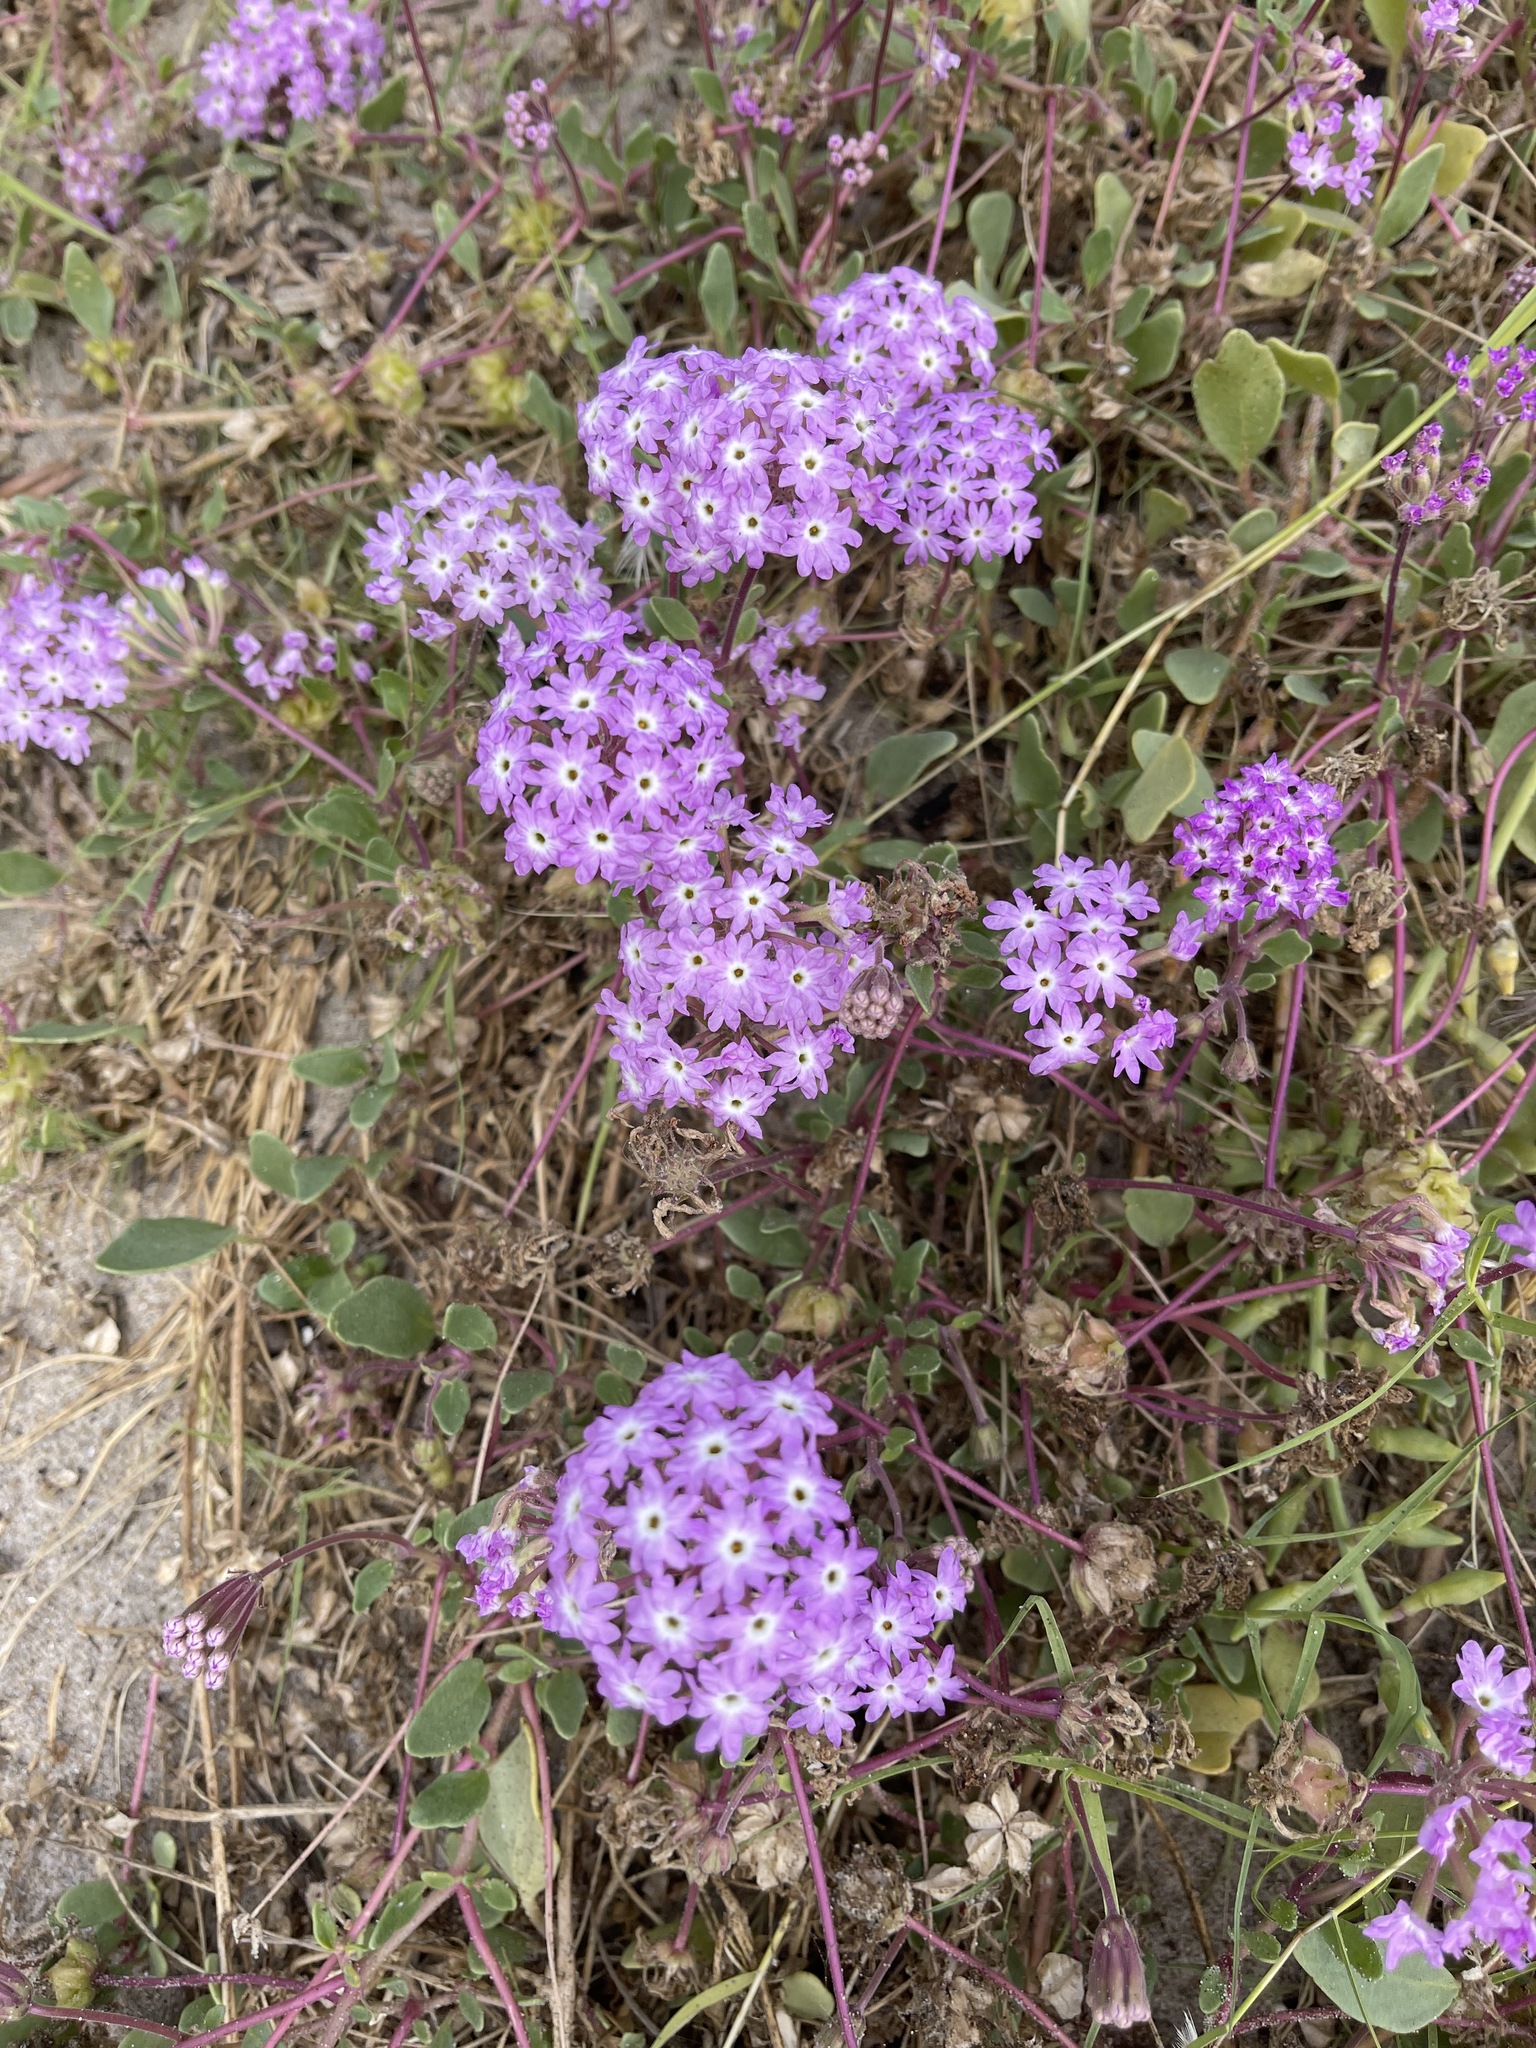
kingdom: Plantae
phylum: Tracheophyta
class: Magnoliopsida
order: Caryophyllales
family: Nyctaginaceae
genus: Abronia
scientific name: Abronia umbellata
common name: Sand-verbena
